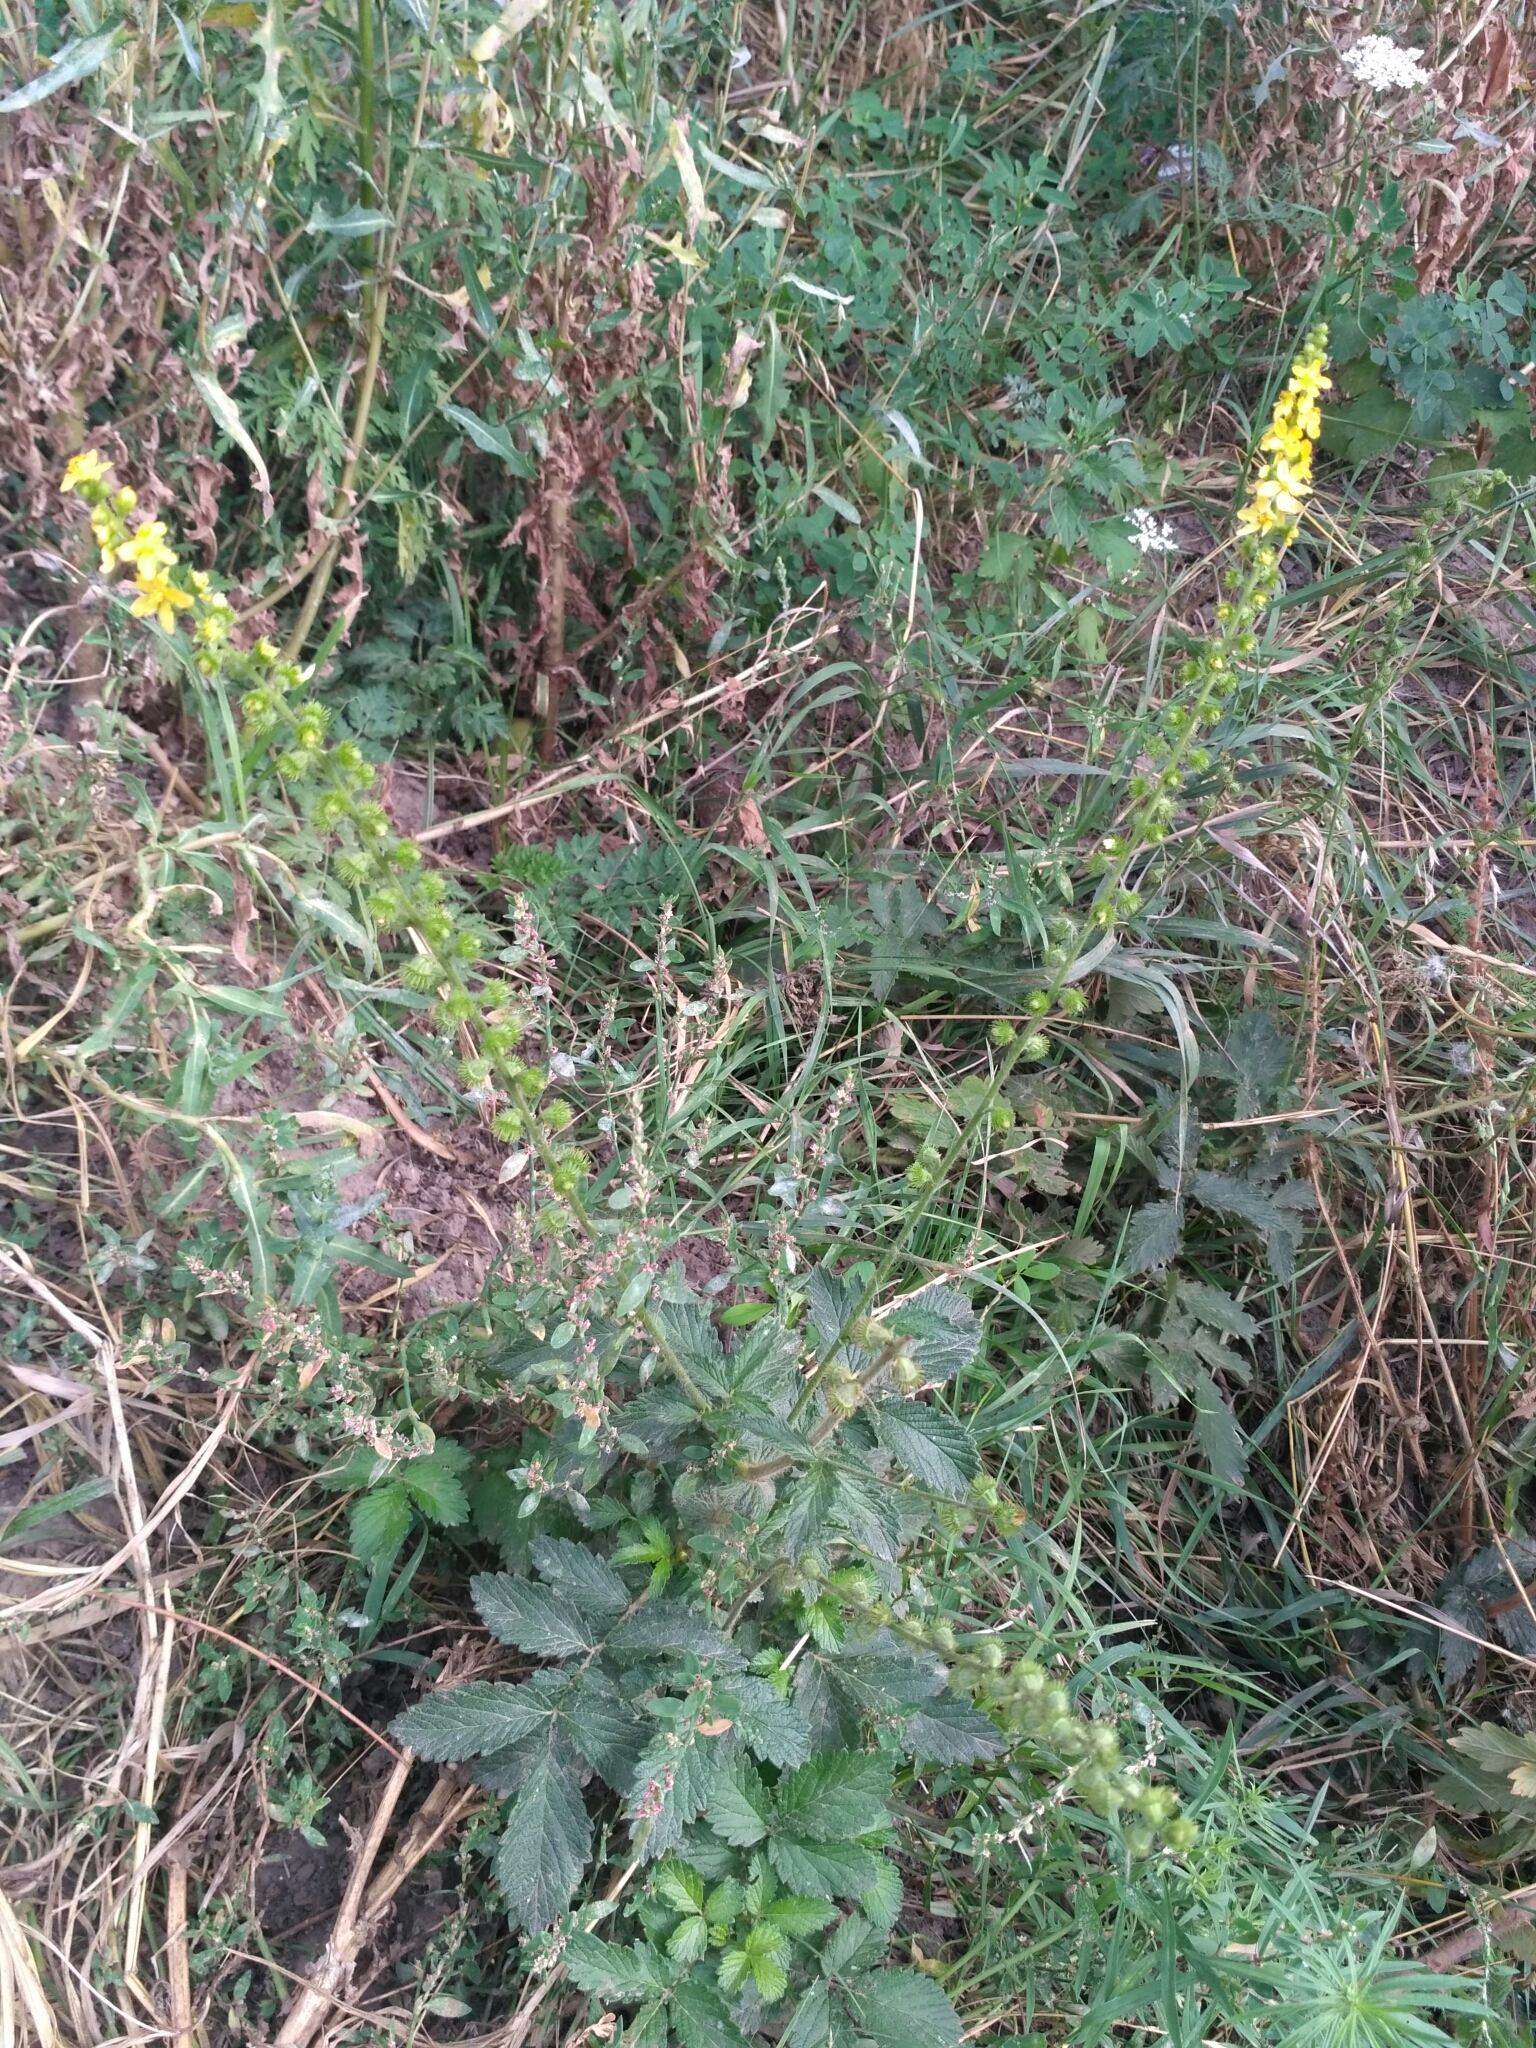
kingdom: Plantae
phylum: Tracheophyta
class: Magnoliopsida
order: Rosales
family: Rosaceae
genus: Agrimonia
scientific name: Agrimonia eupatoria
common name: Agrimony
